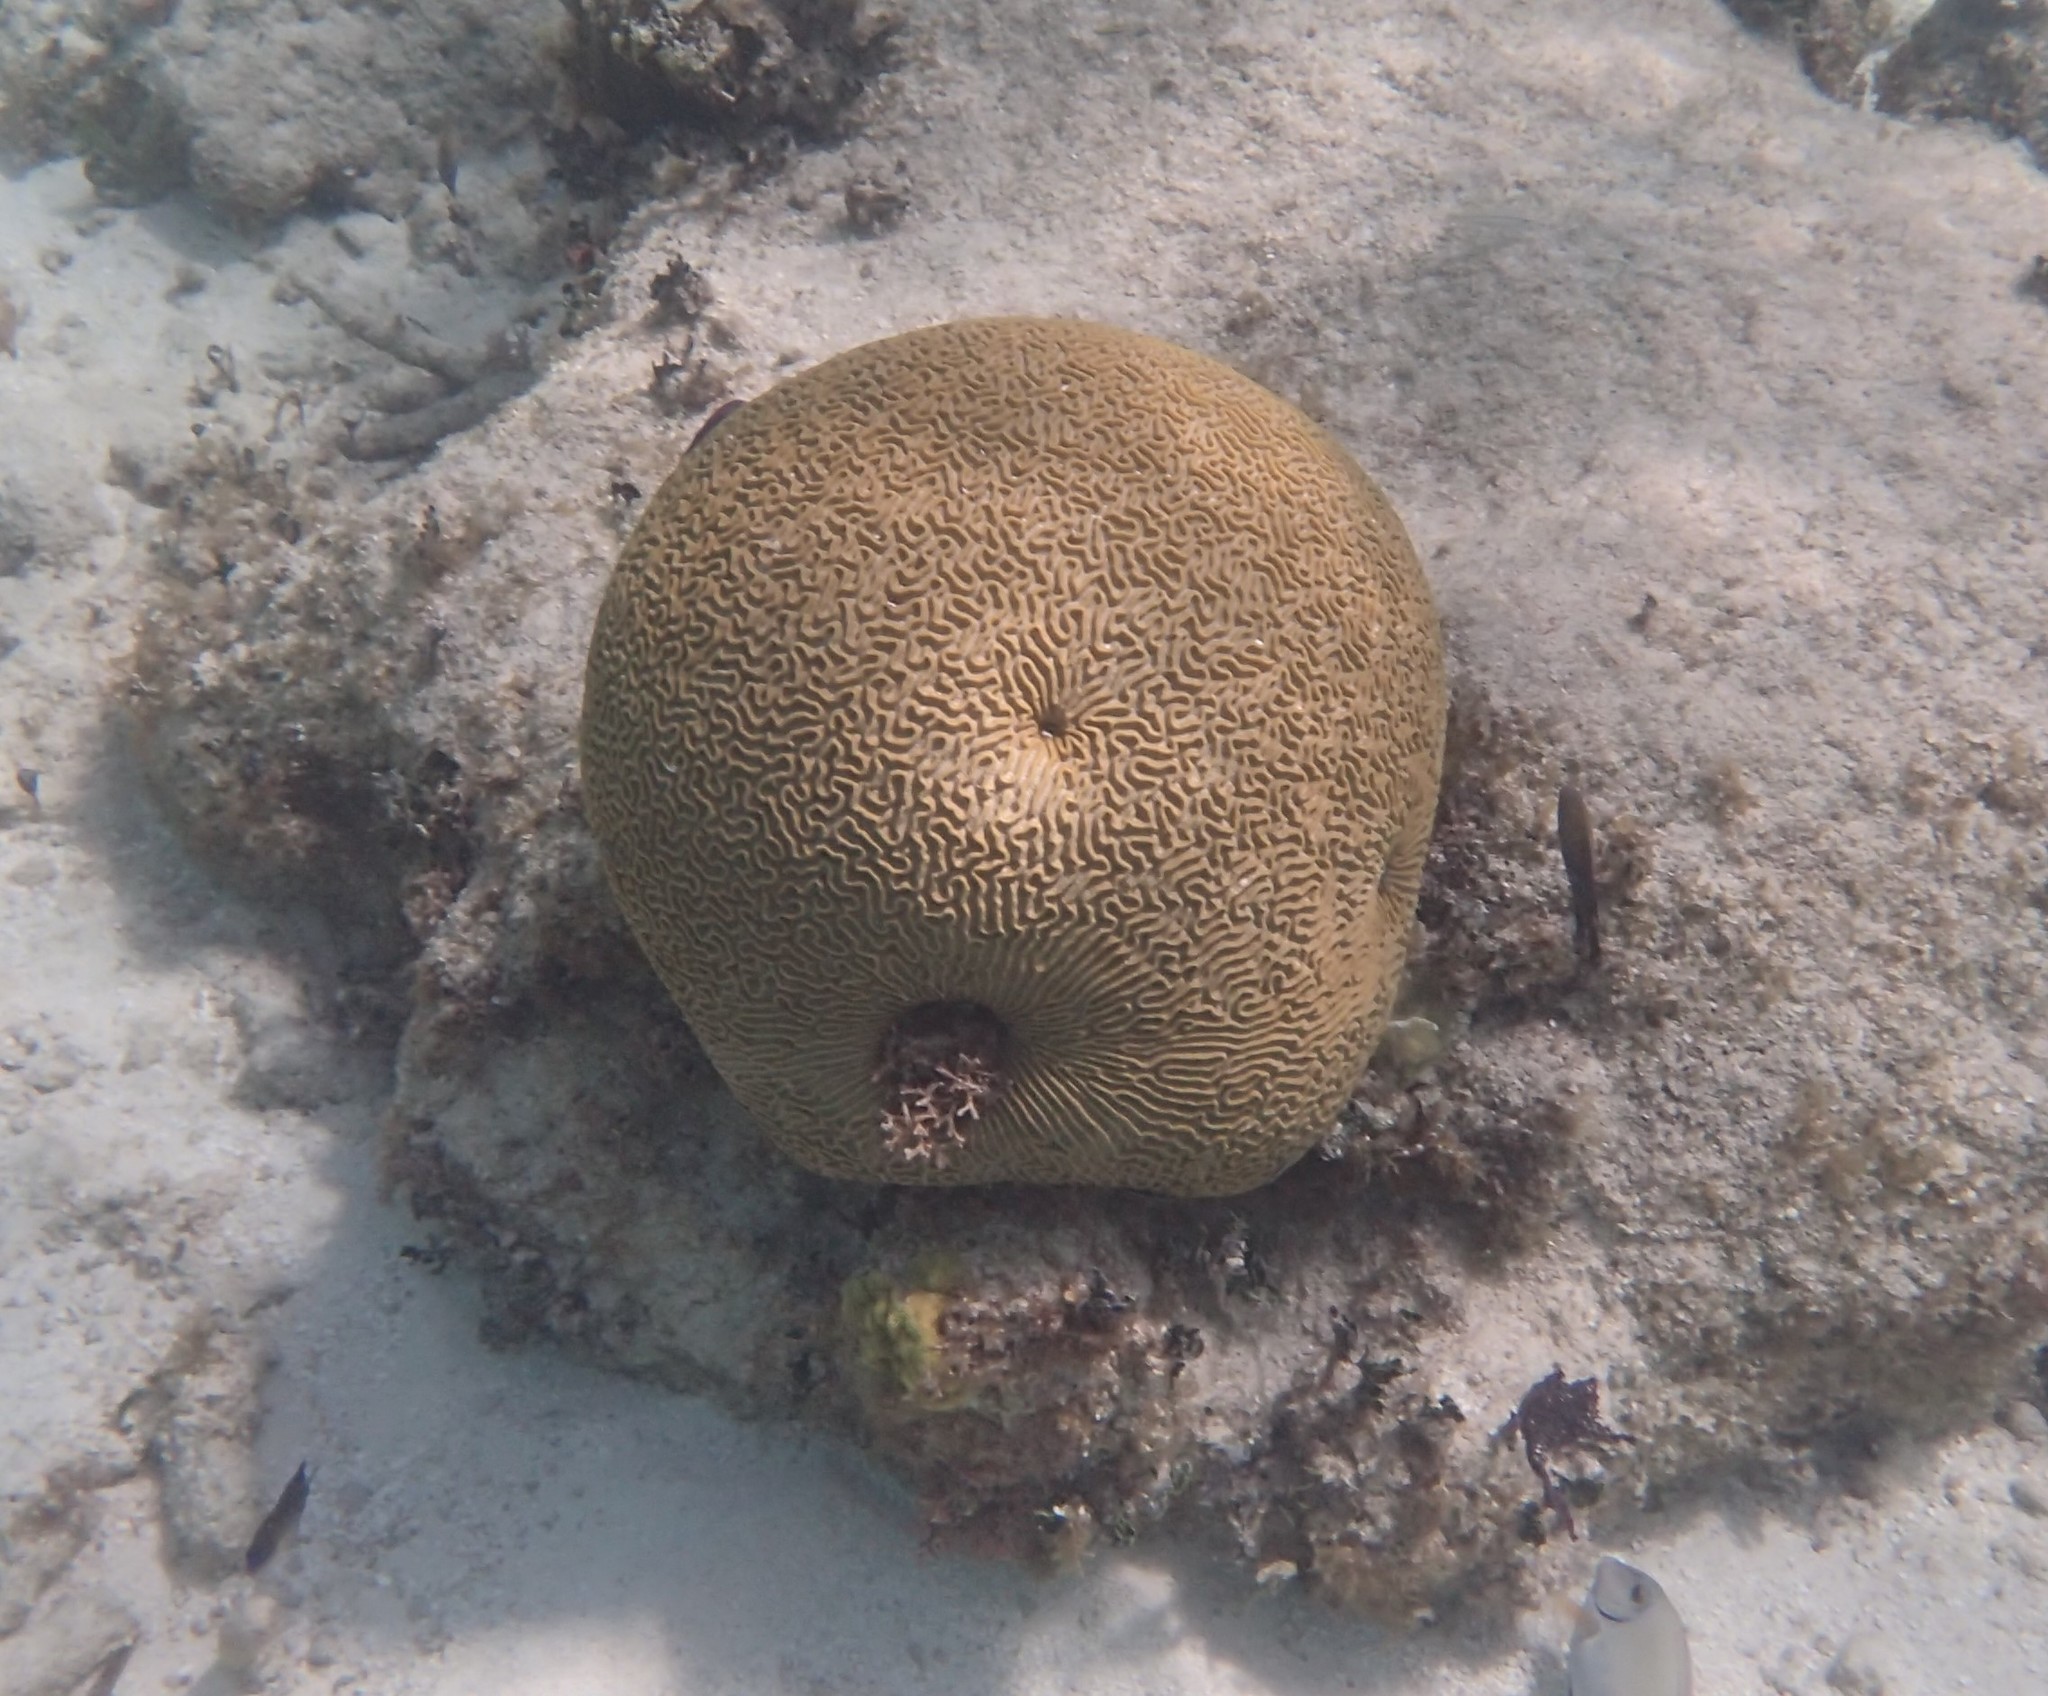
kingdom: Animalia
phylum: Cnidaria
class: Anthozoa
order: Scleractinia
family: Faviidae
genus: Pseudodiploria
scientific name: Pseudodiploria strigosa
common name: Symmetrical brain coral
